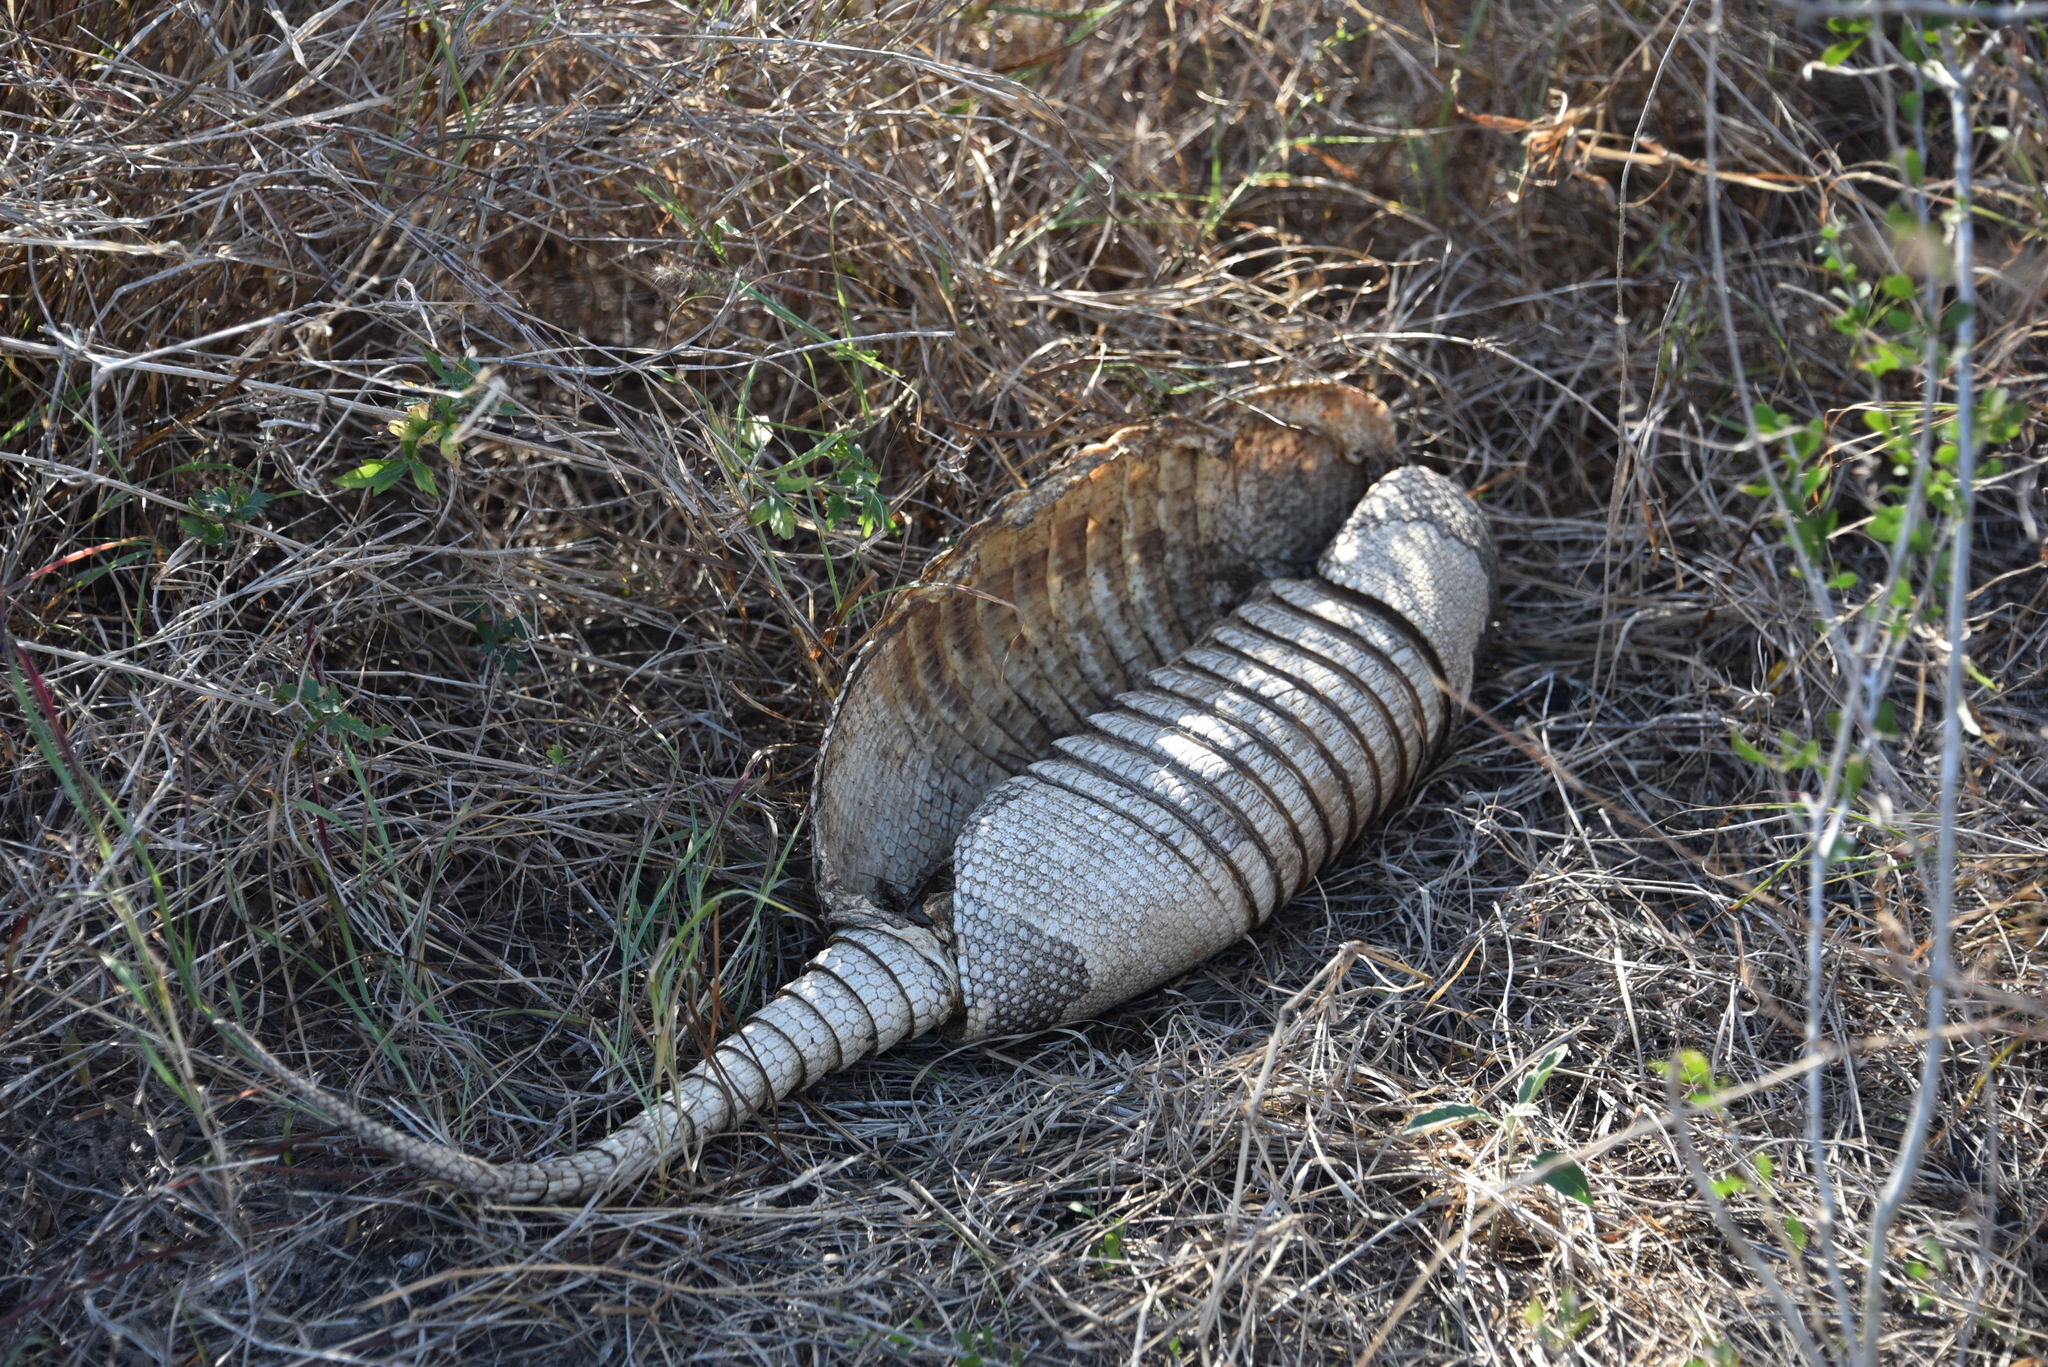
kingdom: Animalia
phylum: Chordata
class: Mammalia
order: Cingulata
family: Dasypodidae
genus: Dasypus
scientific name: Dasypus novemcinctus
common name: Nine-banded armadillo
